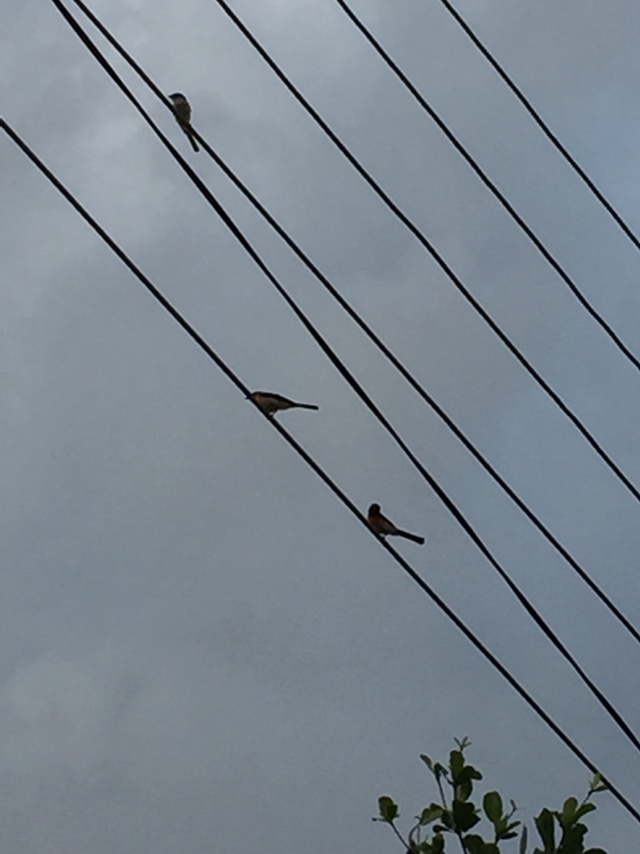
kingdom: Animalia
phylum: Chordata
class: Aves
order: Passeriformes
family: Campephagidae
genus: Pericrocotus
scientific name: Pericrocotus cinnamomeus
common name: Small minivet
